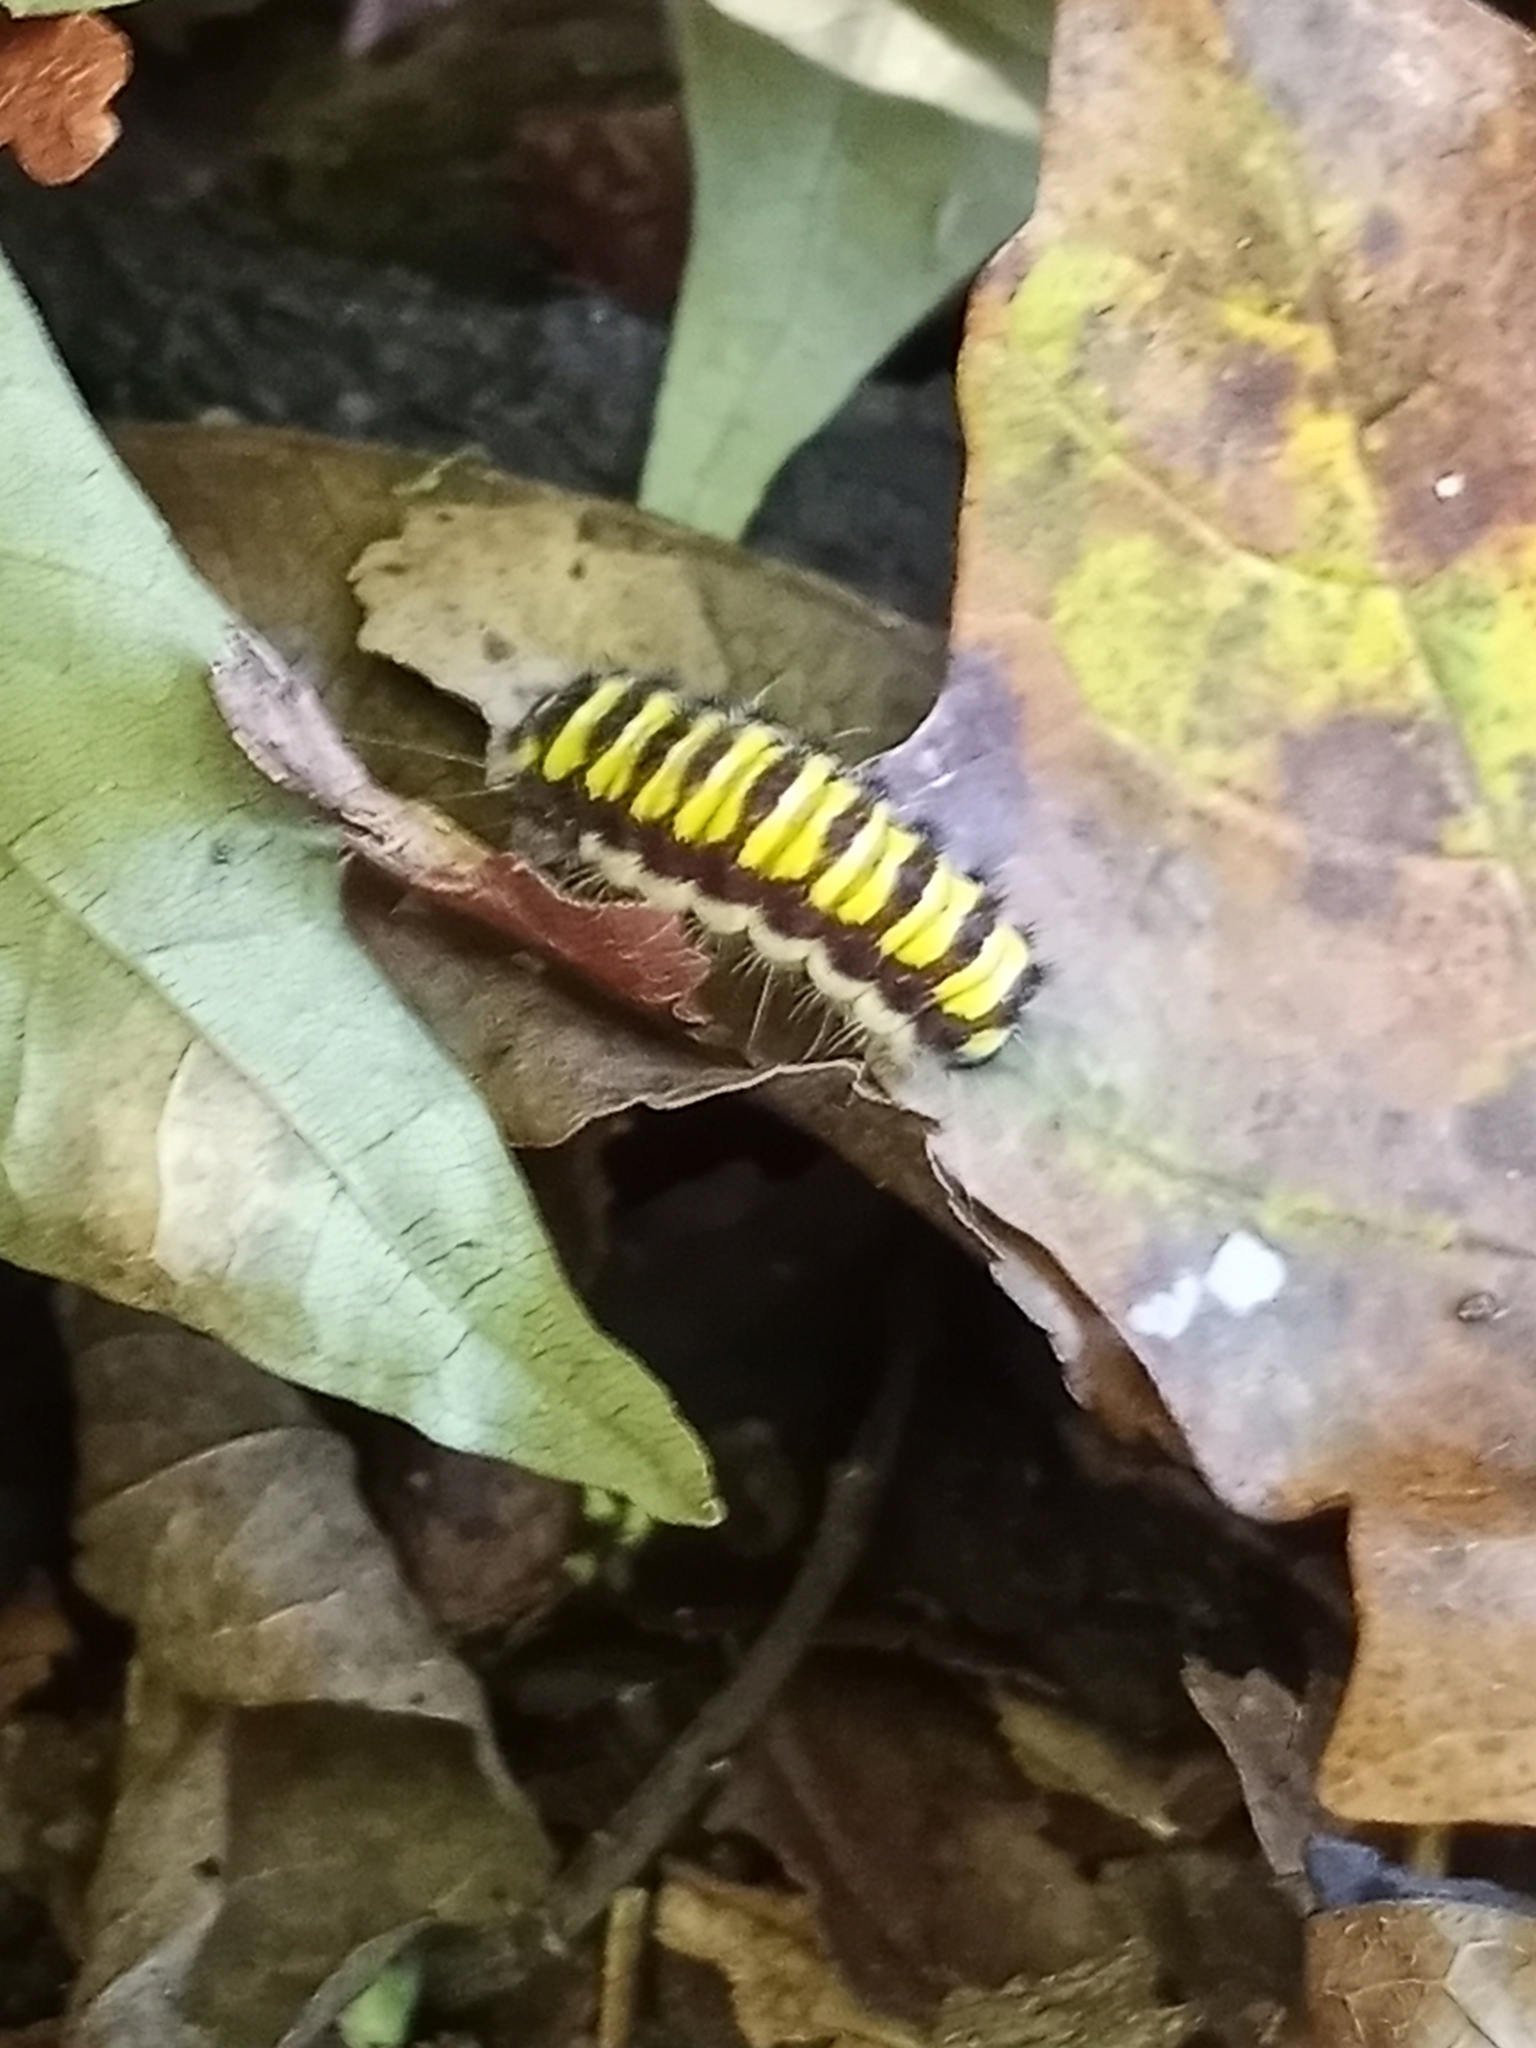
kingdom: Animalia
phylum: Arthropoda
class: Insecta
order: Lepidoptera
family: Zygaenidae
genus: Harrisina
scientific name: Harrisina americana
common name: Grapeleaf skeletonizer moth
